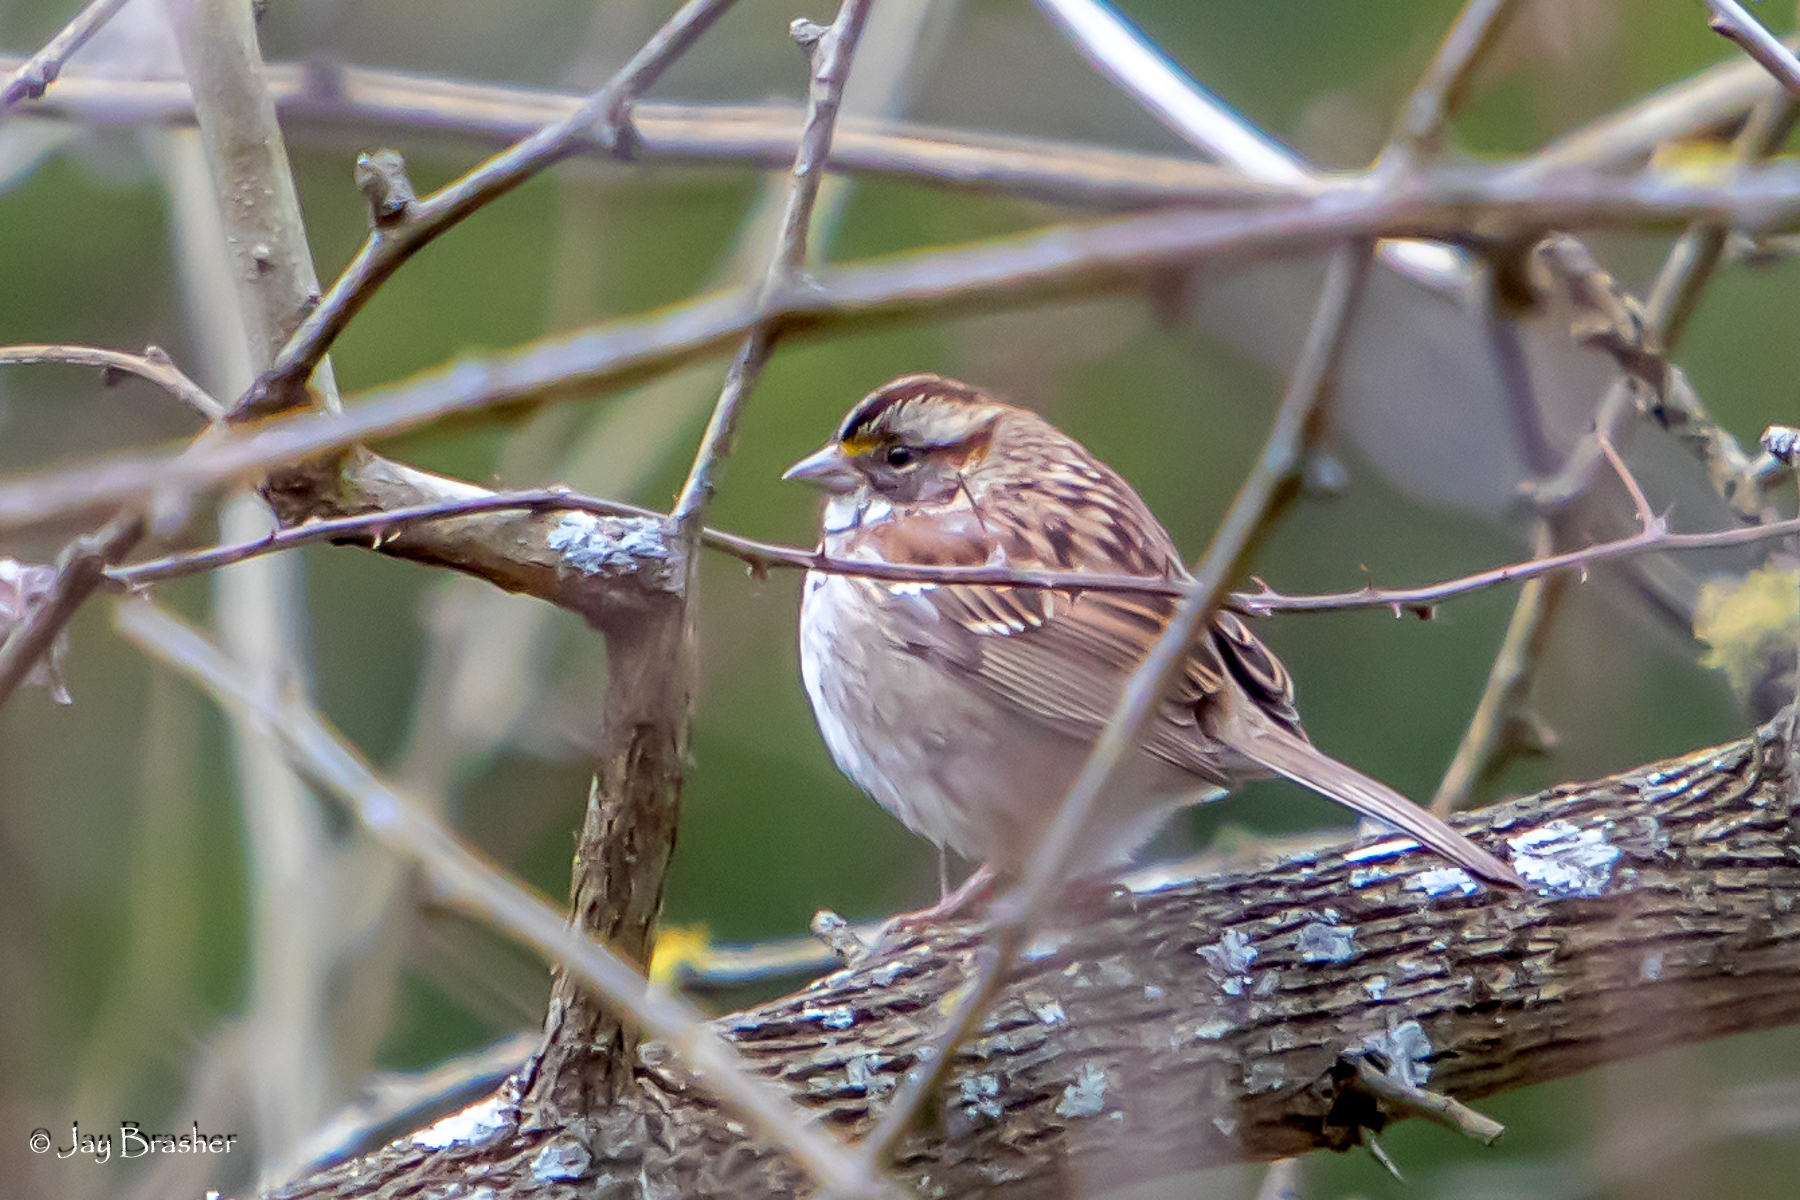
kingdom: Animalia
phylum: Chordata
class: Aves
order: Passeriformes
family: Passerellidae
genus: Zonotrichia
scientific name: Zonotrichia albicollis
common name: White-throated sparrow
